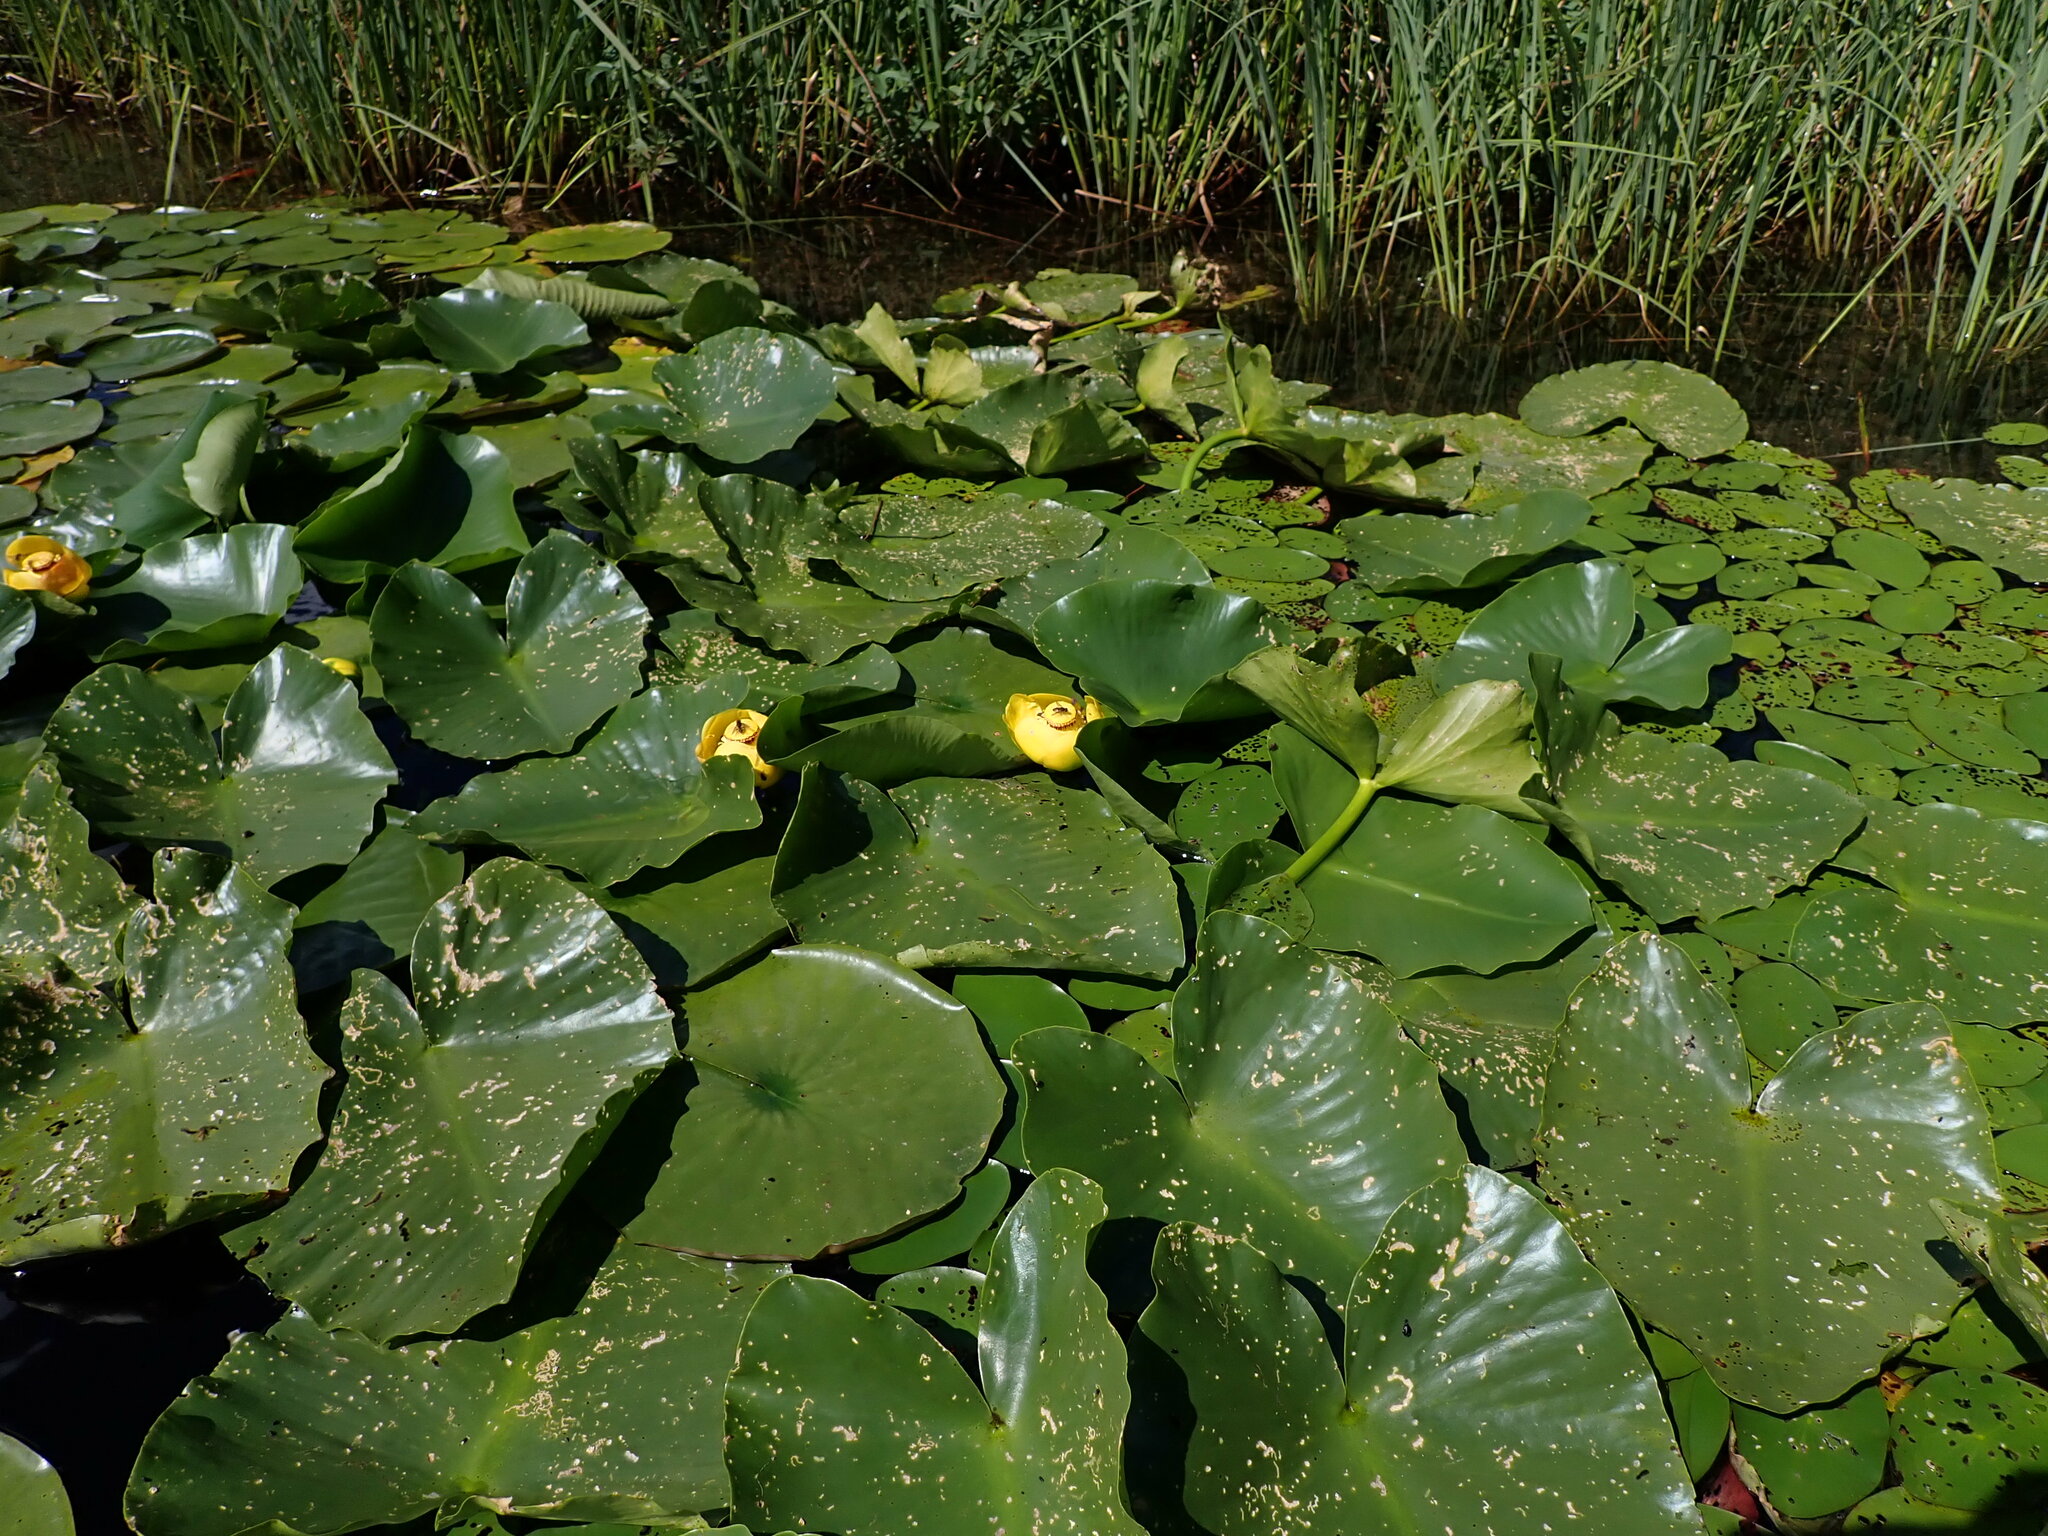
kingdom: Plantae
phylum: Tracheophyta
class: Magnoliopsida
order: Nymphaeales
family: Nymphaeaceae
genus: Nuphar
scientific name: Nuphar polysepala
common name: Rocky mountain cow-lily
